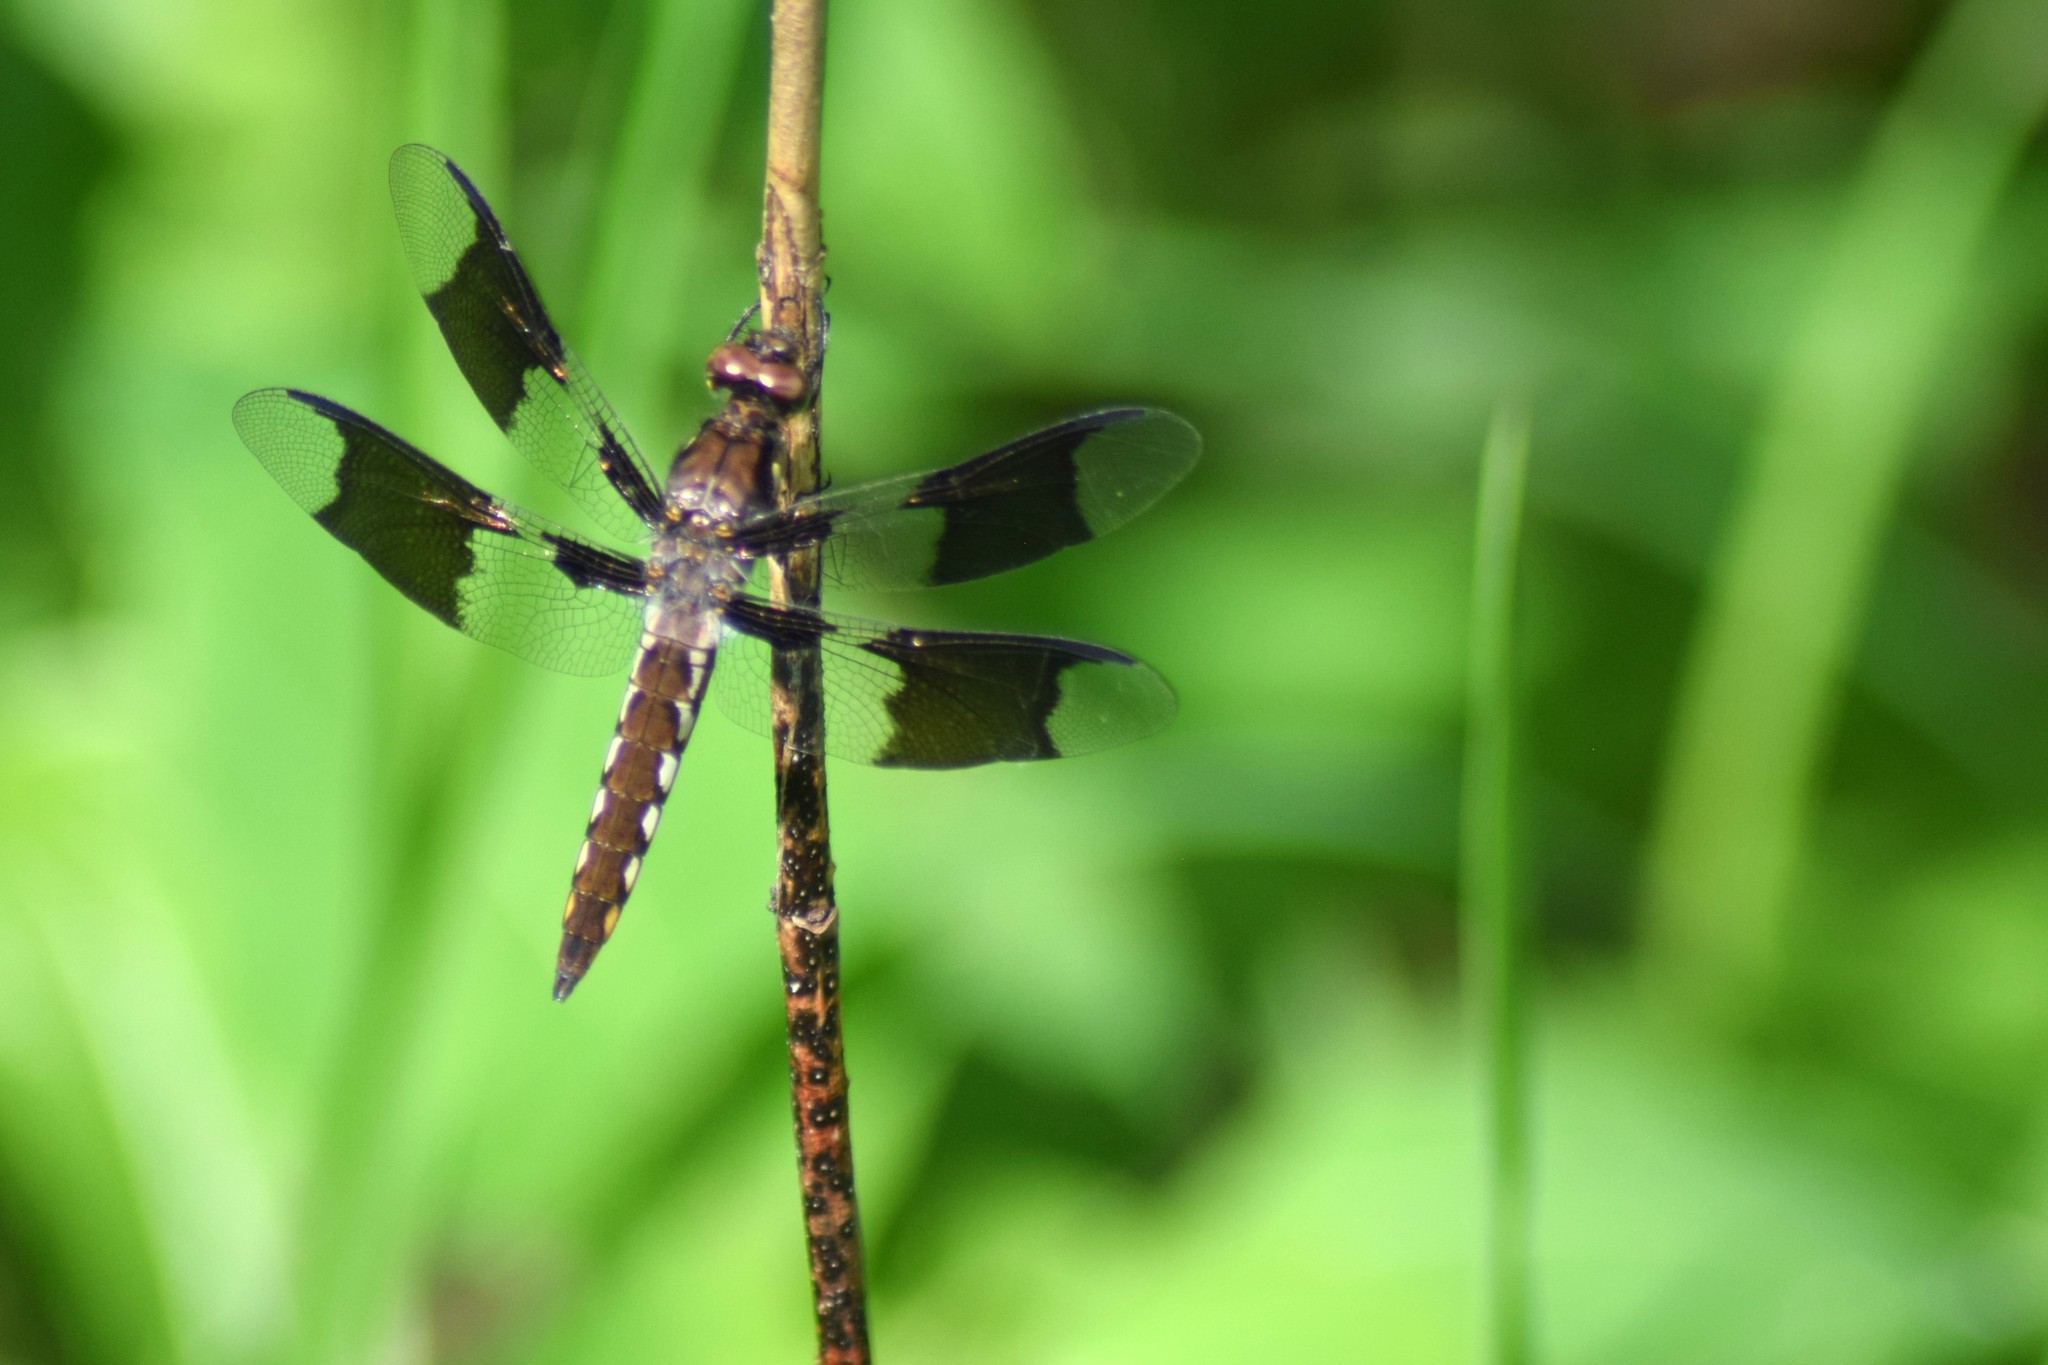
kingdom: Animalia
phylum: Arthropoda
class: Insecta
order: Odonata
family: Libellulidae
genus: Plathemis
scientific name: Plathemis lydia
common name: Common whitetail
